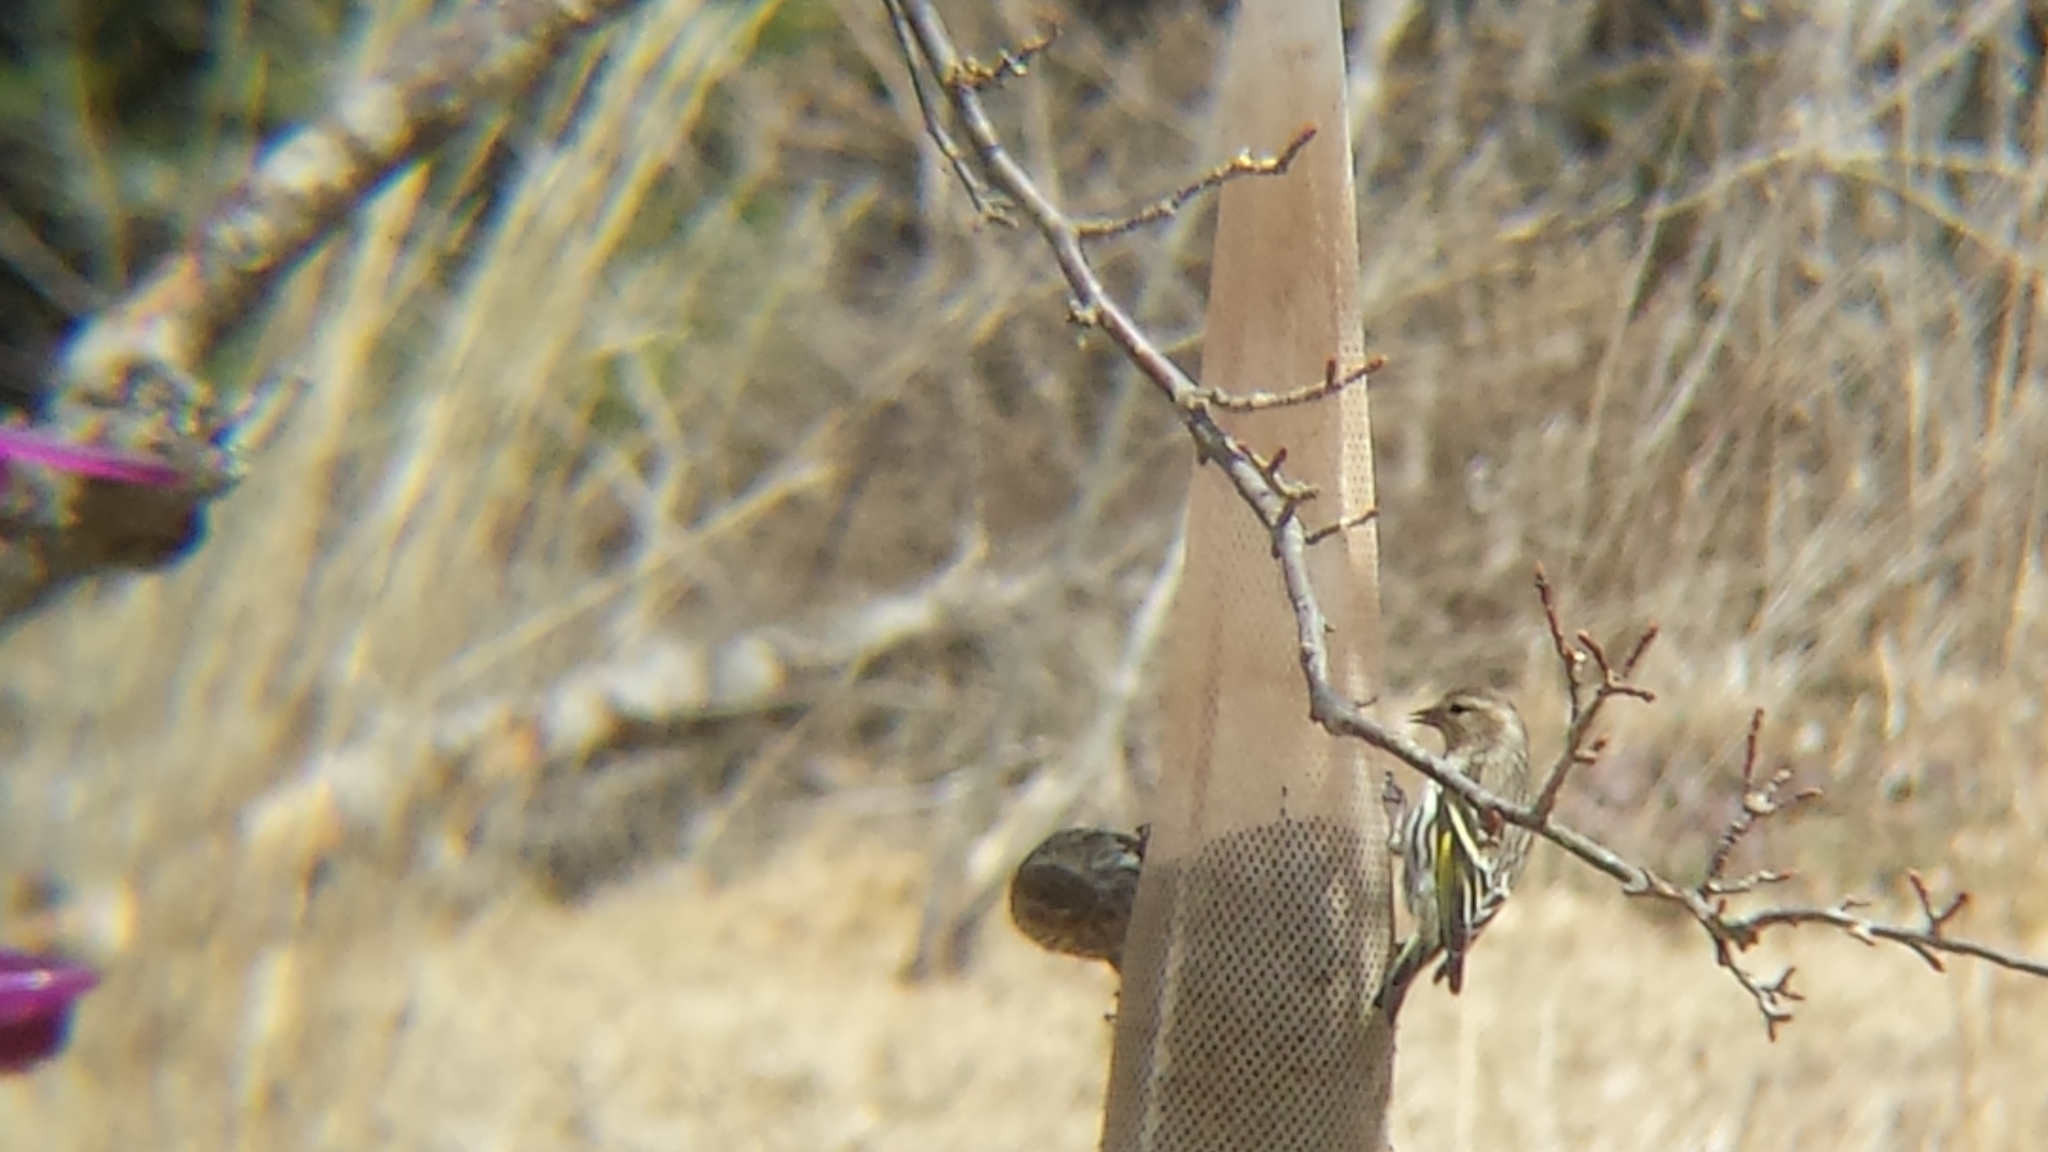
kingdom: Animalia
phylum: Chordata
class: Aves
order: Passeriformes
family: Fringillidae
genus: Spinus
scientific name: Spinus pinus
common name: Pine siskin
